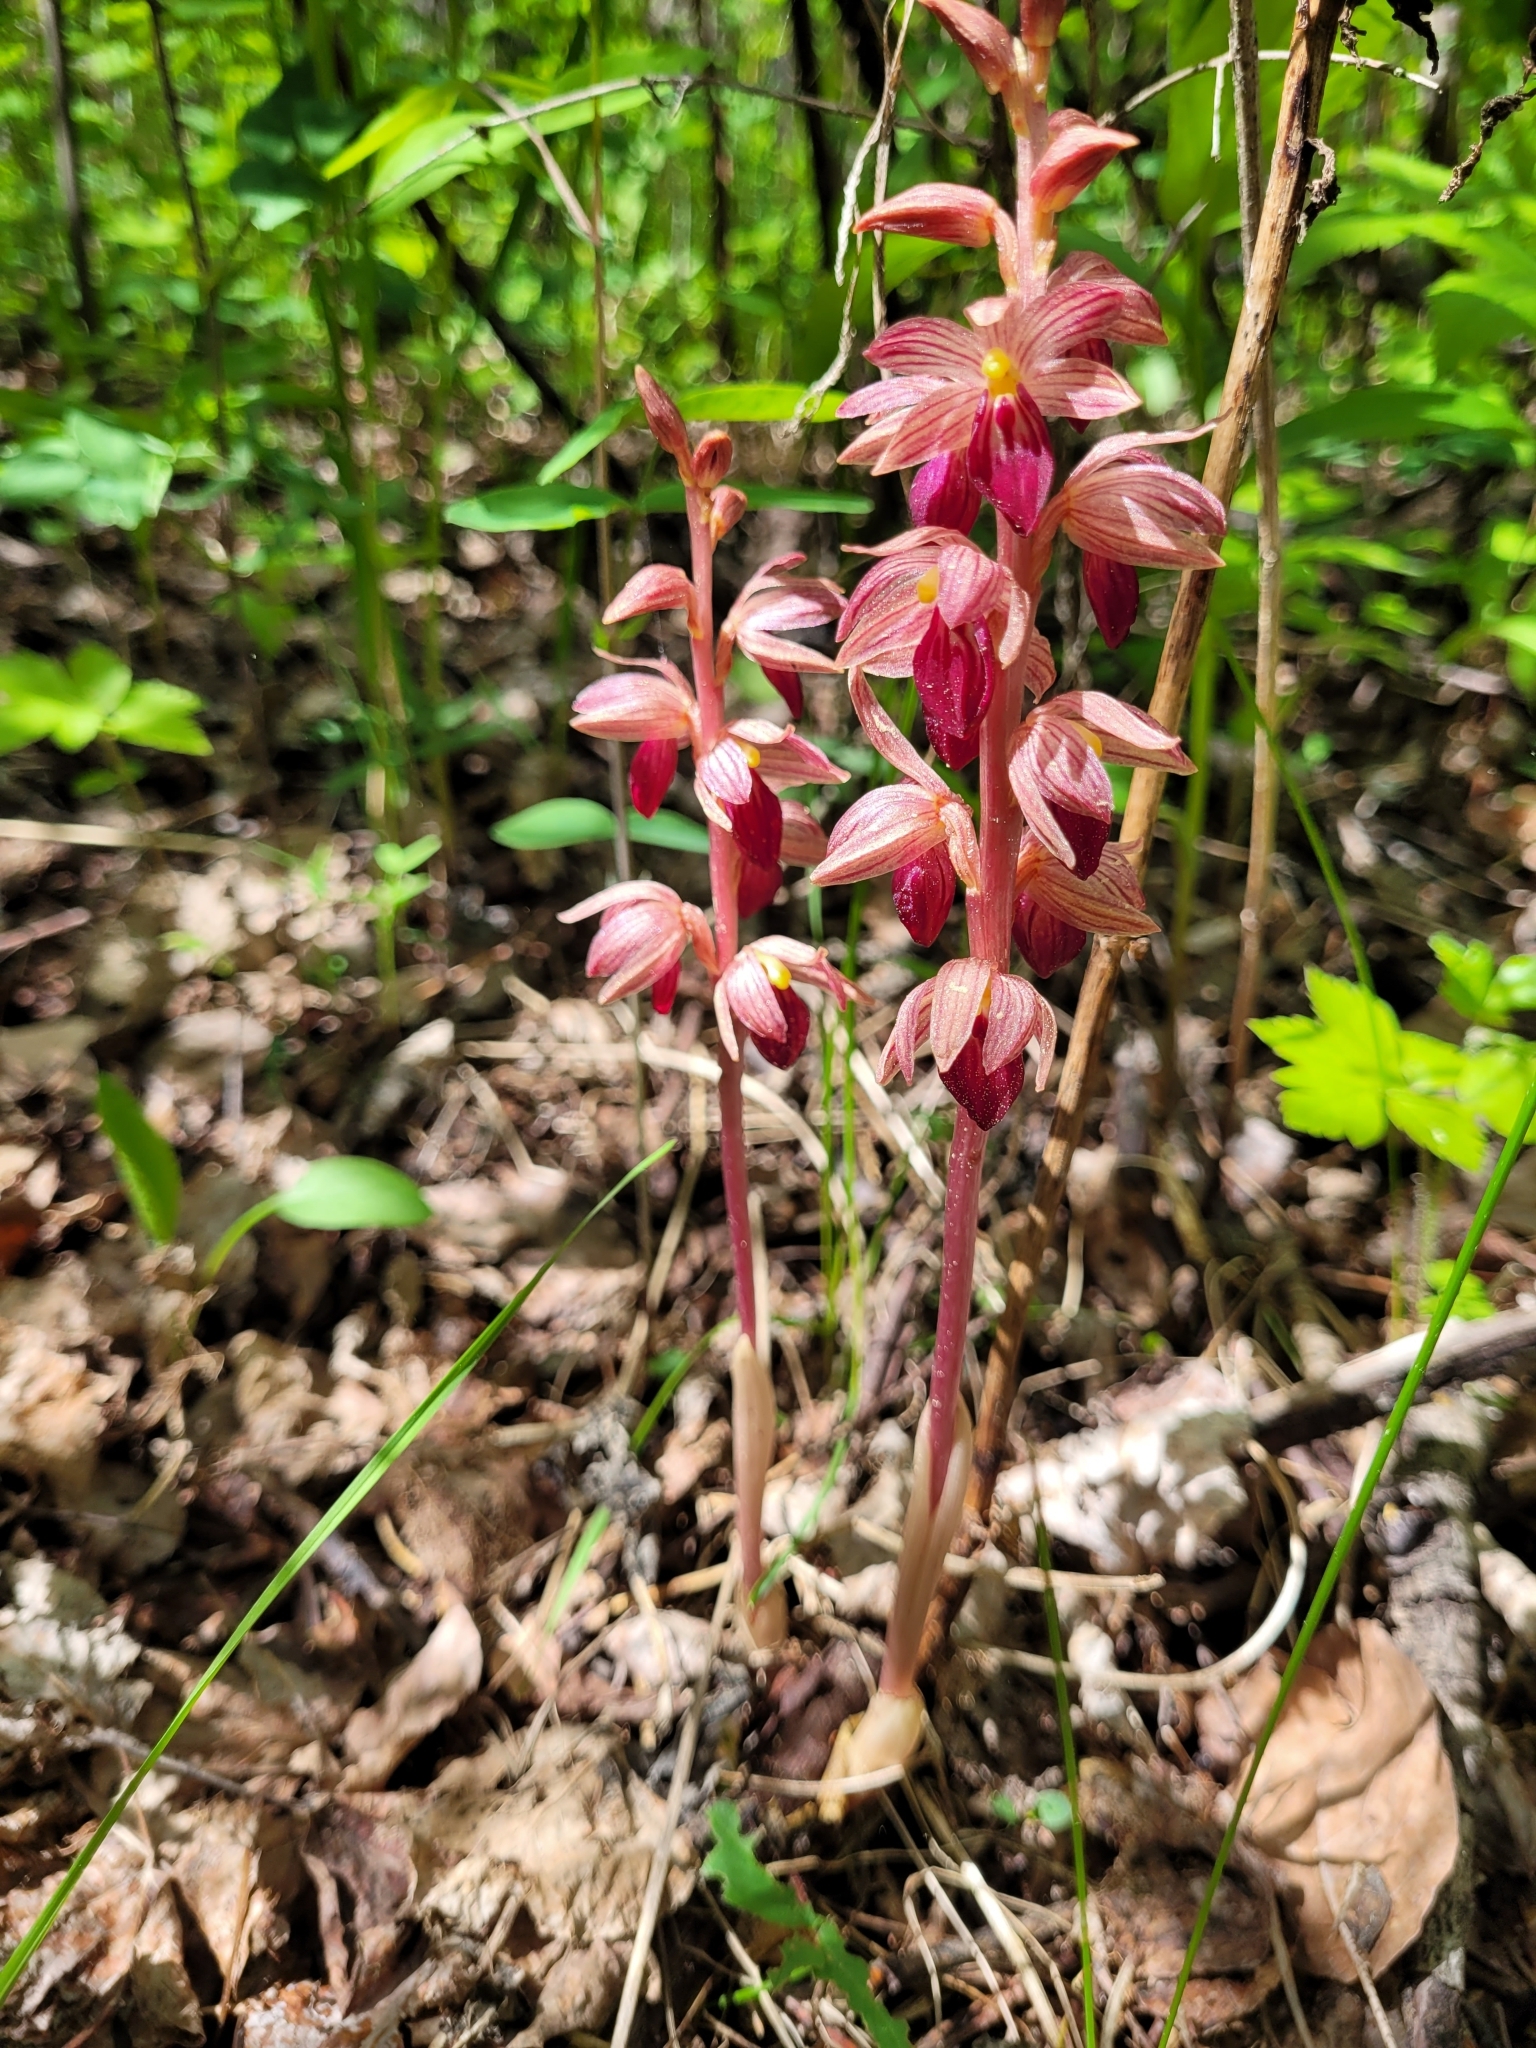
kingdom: Plantae
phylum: Tracheophyta
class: Liliopsida
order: Asparagales
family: Orchidaceae
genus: Corallorhiza
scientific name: Corallorhiza striata
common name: Hooded coralroot
